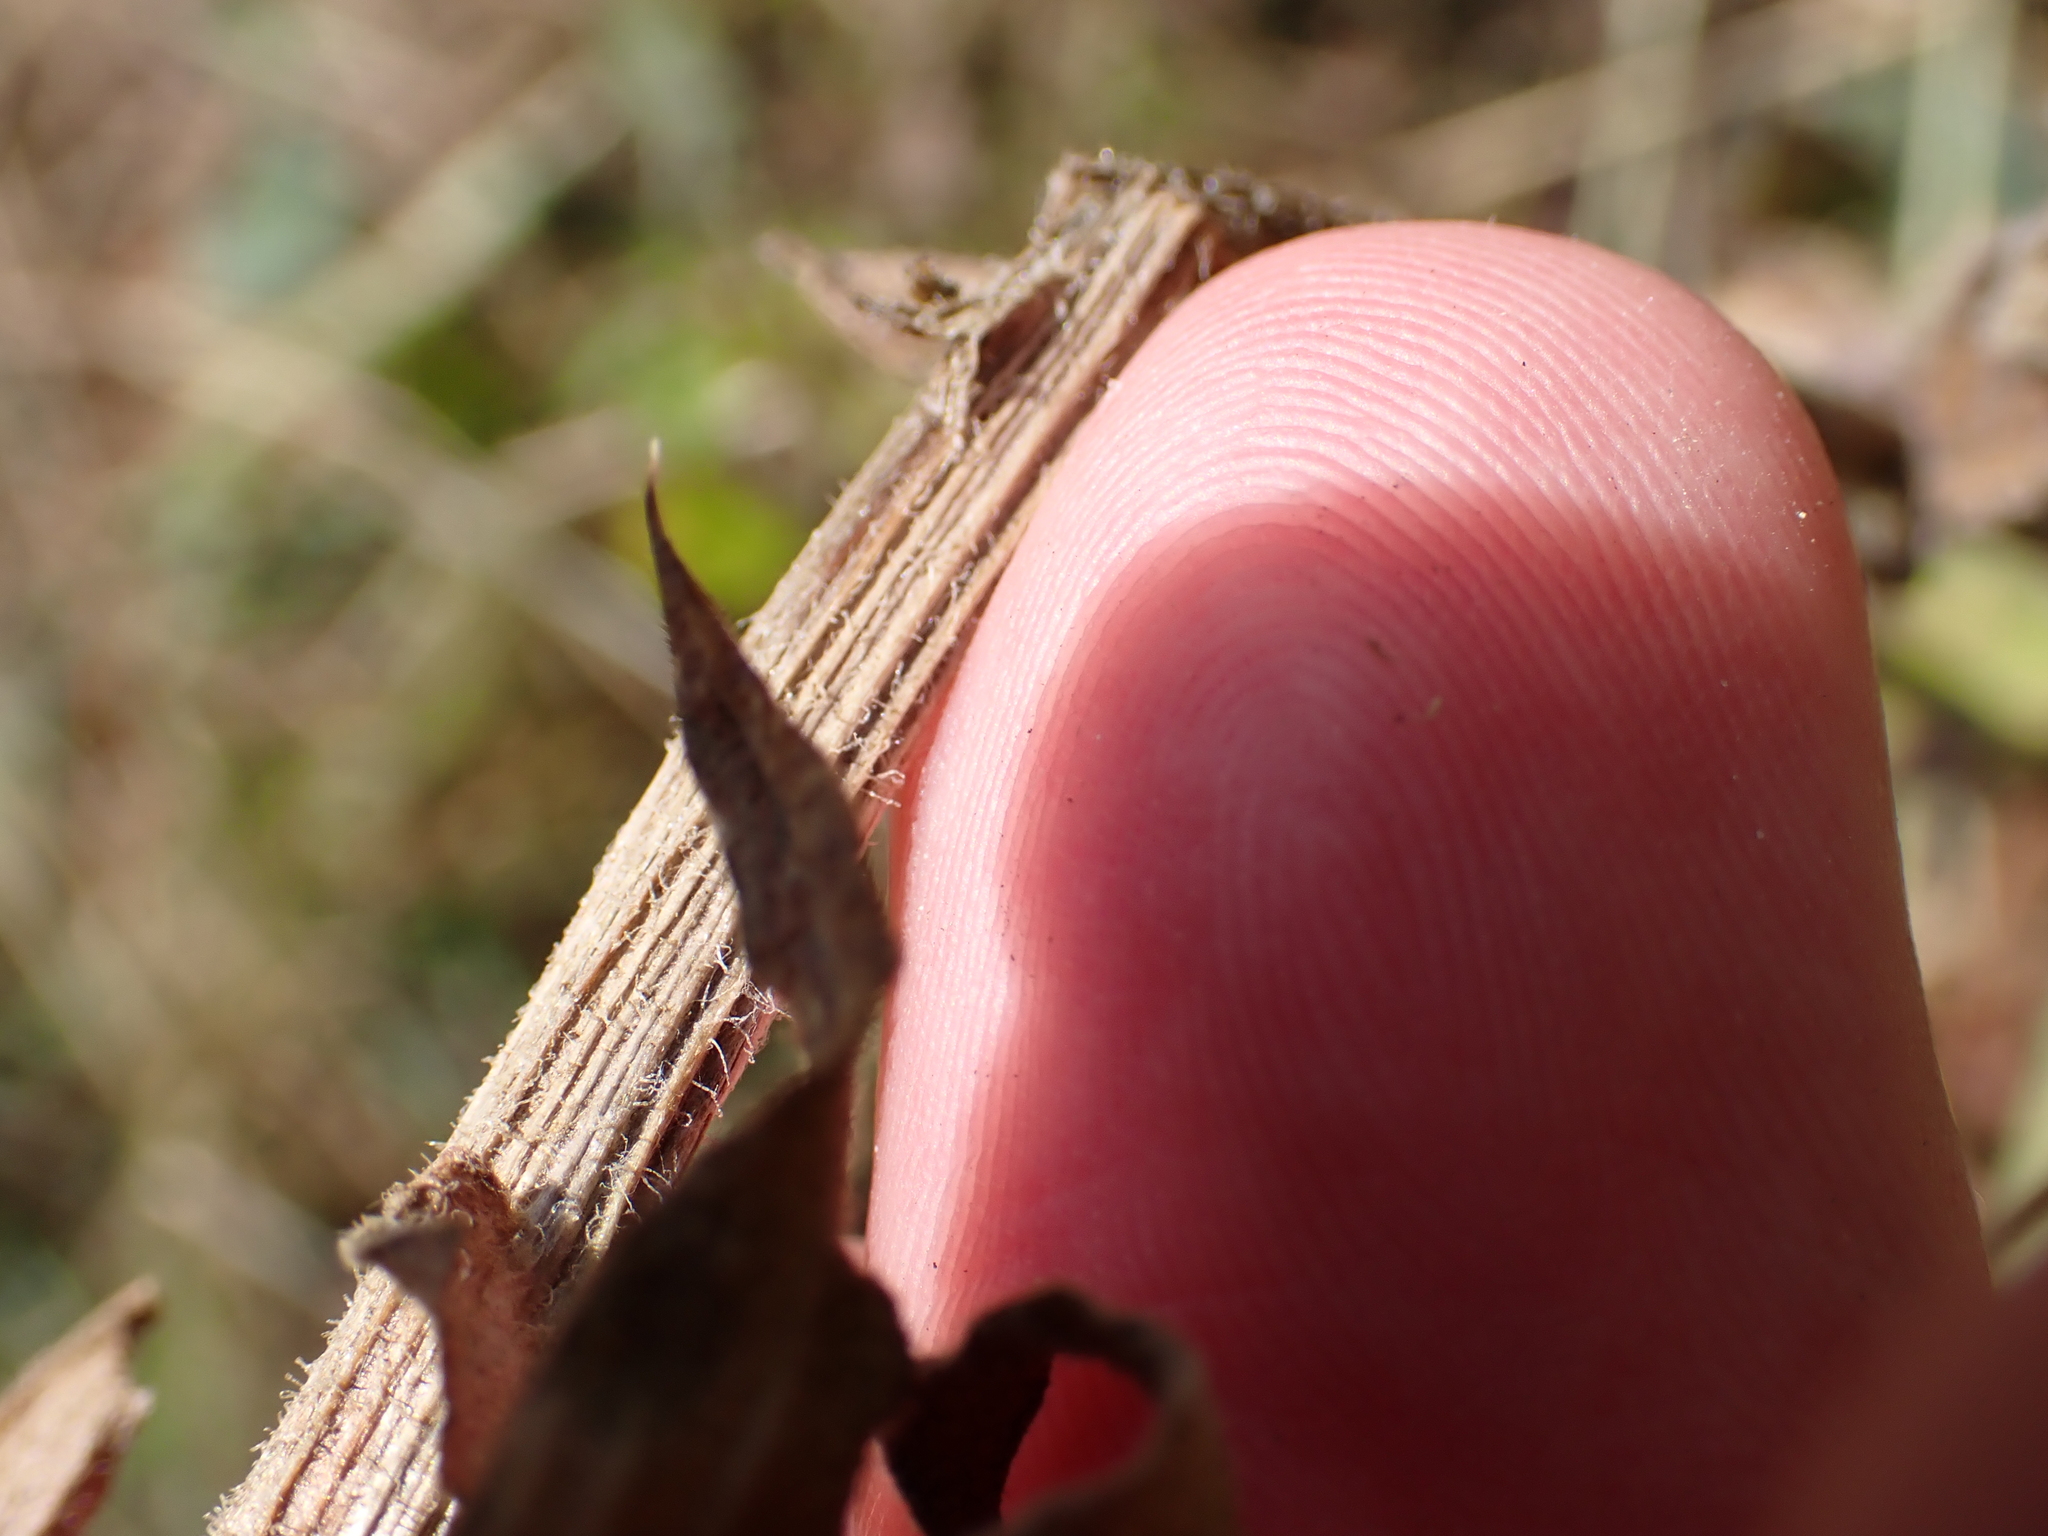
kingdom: Plantae
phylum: Tracheophyta
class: Magnoliopsida
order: Asterales
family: Asteraceae
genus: Centaurea
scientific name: Centaurea nervosa
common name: Singleflower knapweed
